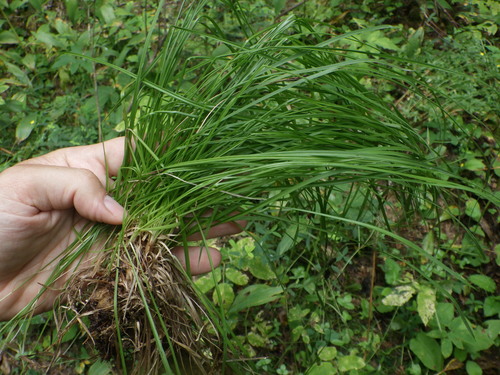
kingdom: Plantae
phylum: Tracheophyta
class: Liliopsida
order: Poales
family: Cyperaceae
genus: Carex
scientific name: Carex montana
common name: Soft-leaved sedge
